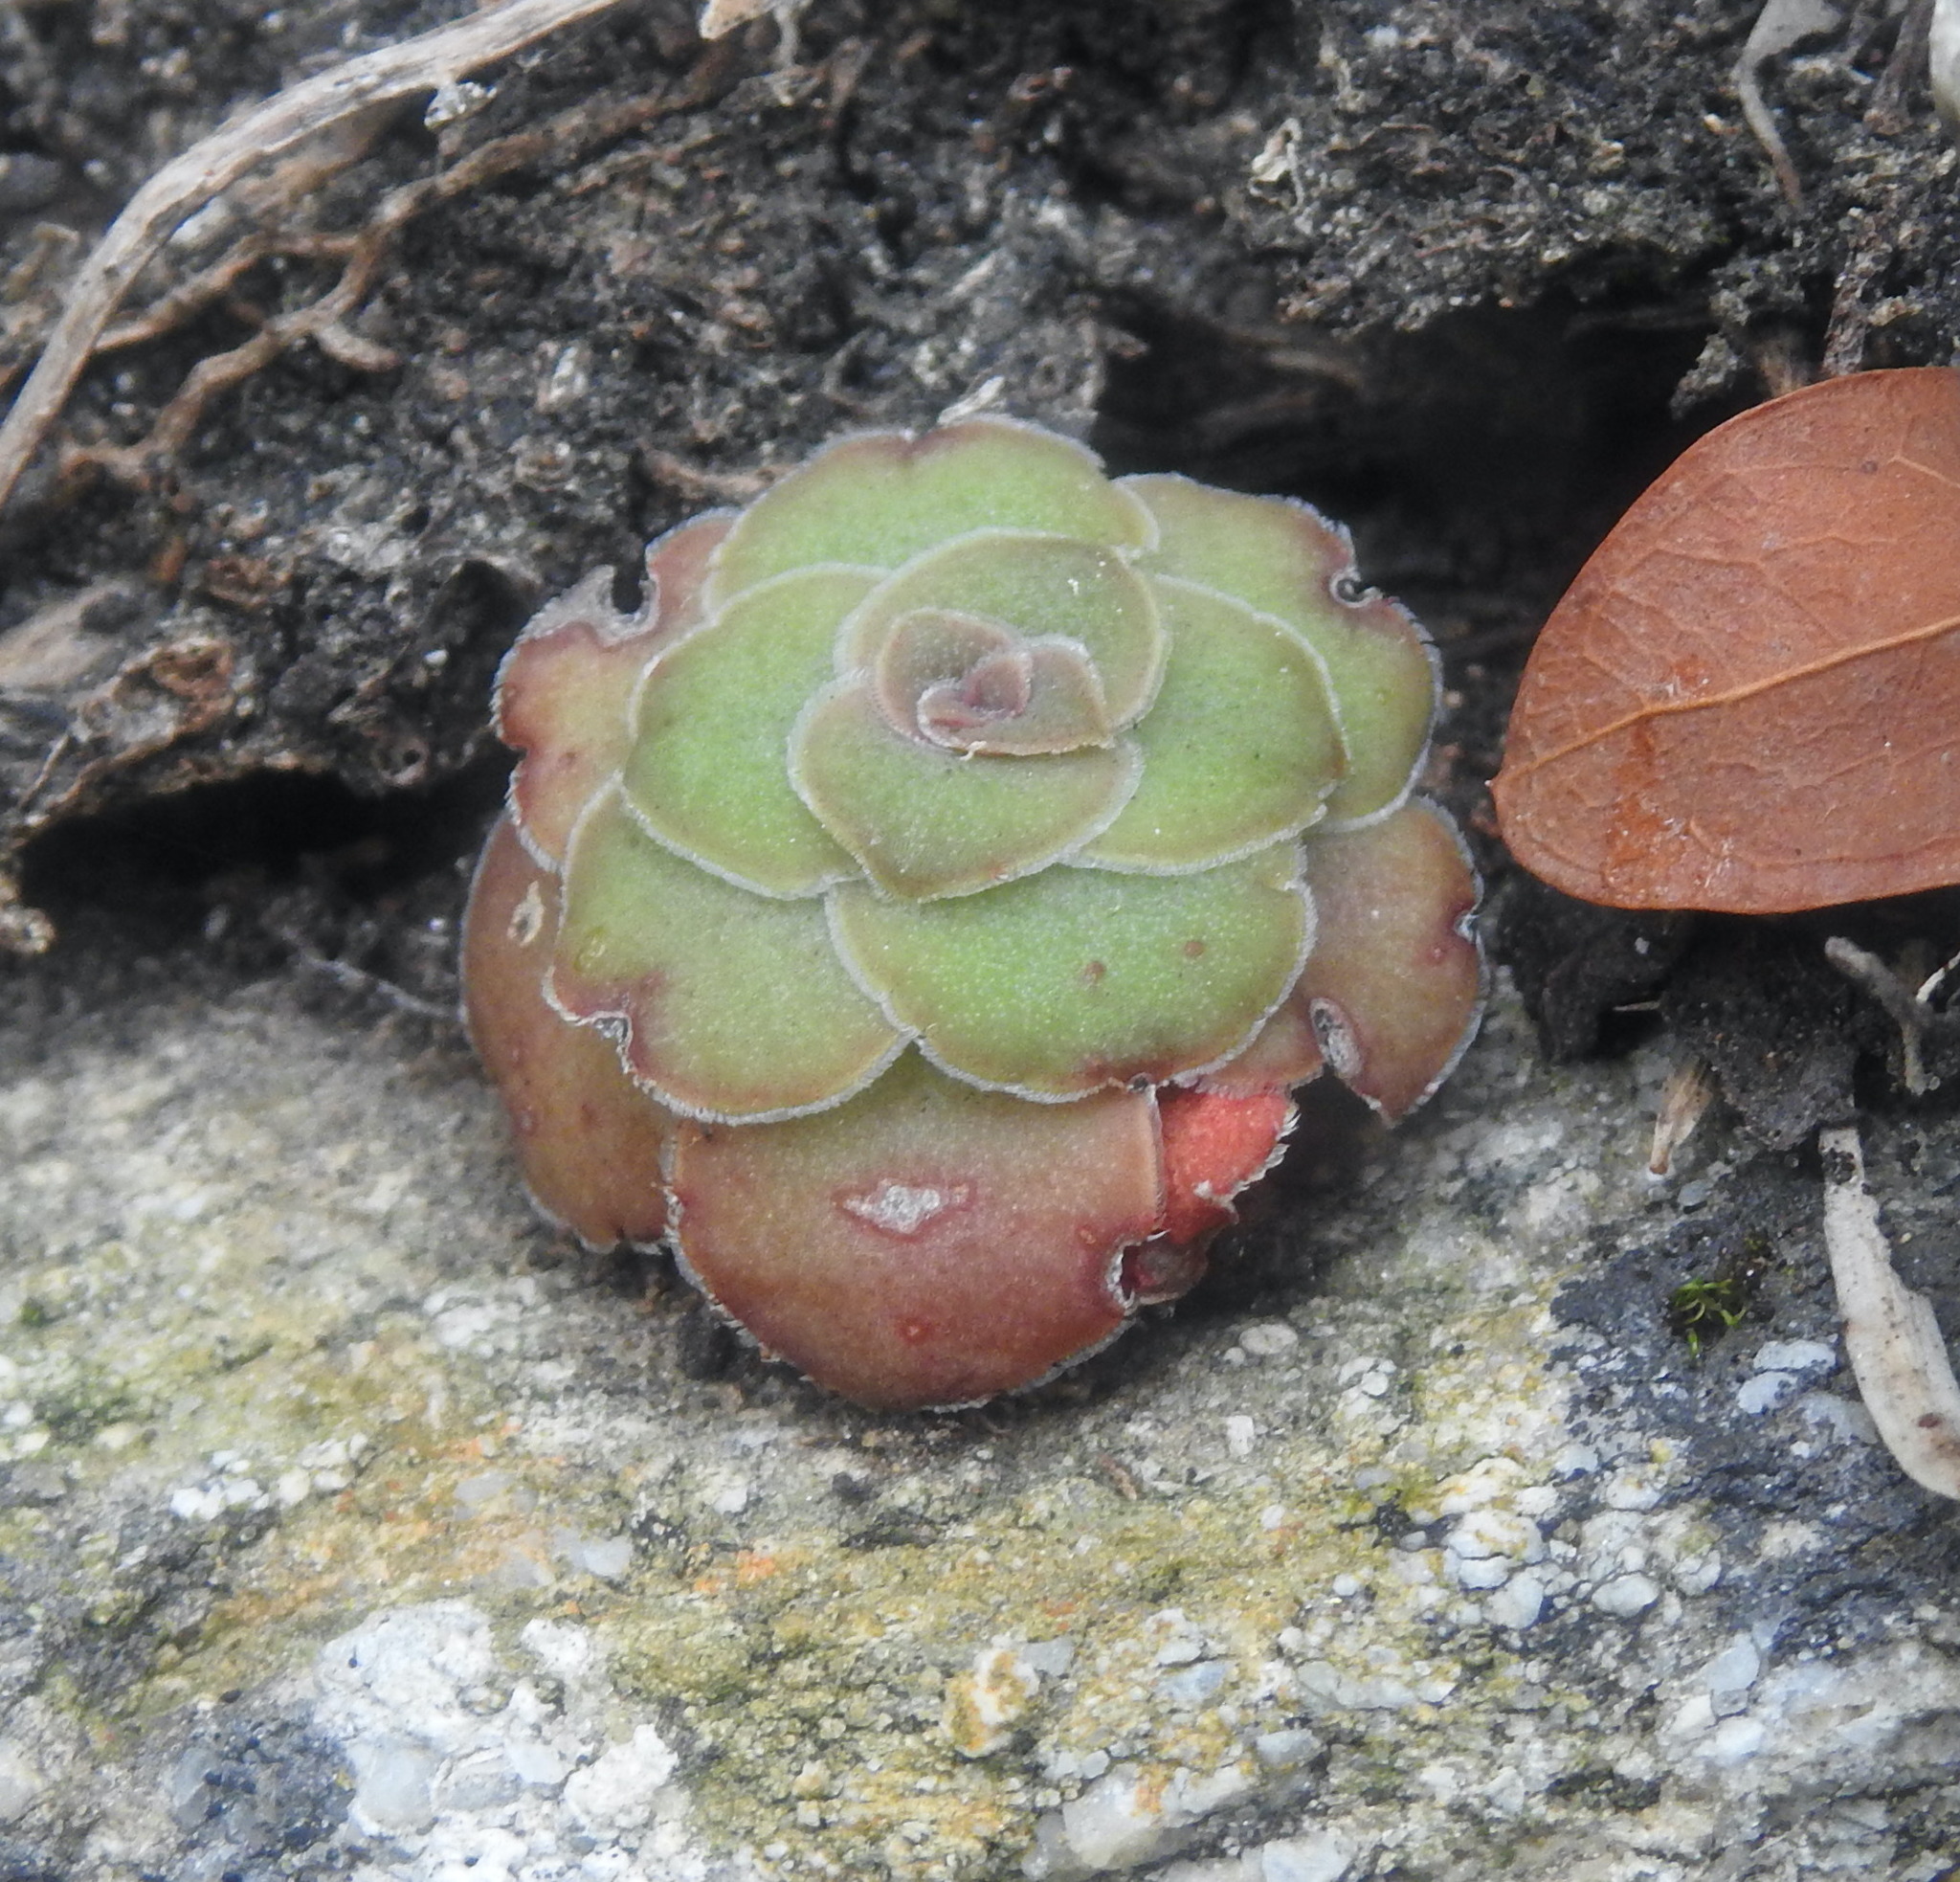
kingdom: Plantae
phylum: Tracheophyta
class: Magnoliopsida
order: Saxifragales
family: Crassulaceae
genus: Crassula
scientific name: Crassula orbicularis
